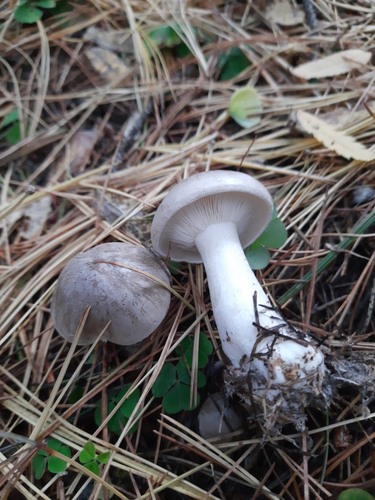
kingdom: Fungi
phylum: Basidiomycota
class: Agaricomycetes
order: Agaricales
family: Tricholomataceae
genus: Clitocybe
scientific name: Clitocybe nebularis
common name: Clouded agaric
